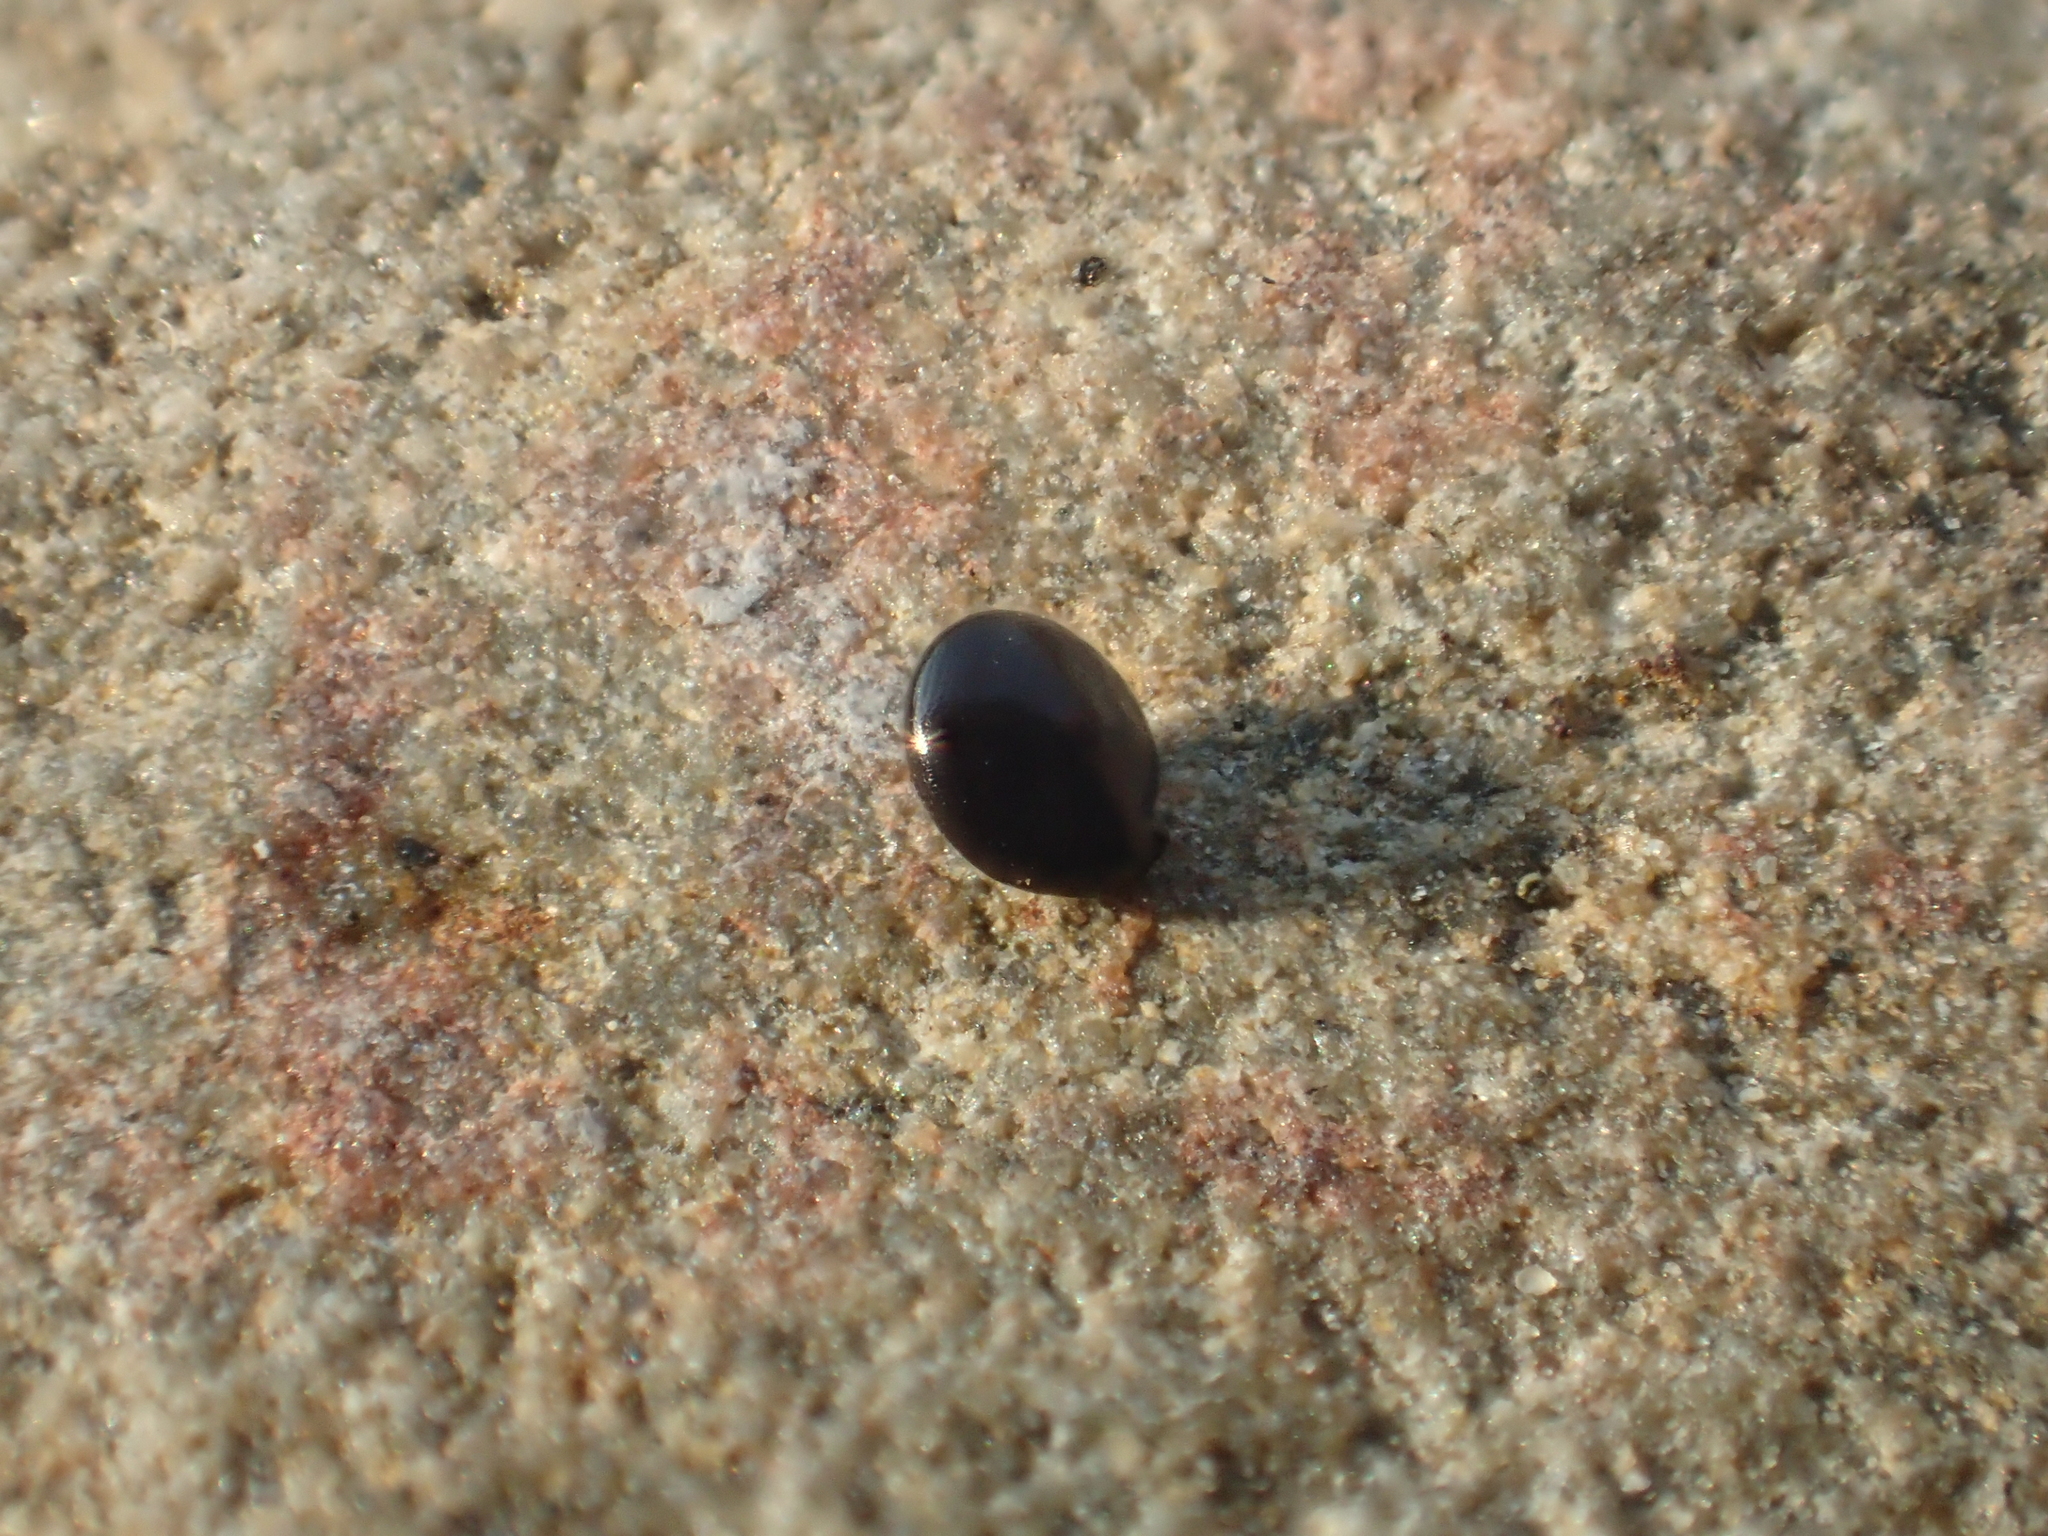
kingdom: Plantae
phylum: Tracheophyta
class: Magnoliopsida
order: Caryophyllales
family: Amaranthaceae
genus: Celosia
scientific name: Celosia argentea
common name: Feather cockscomb
